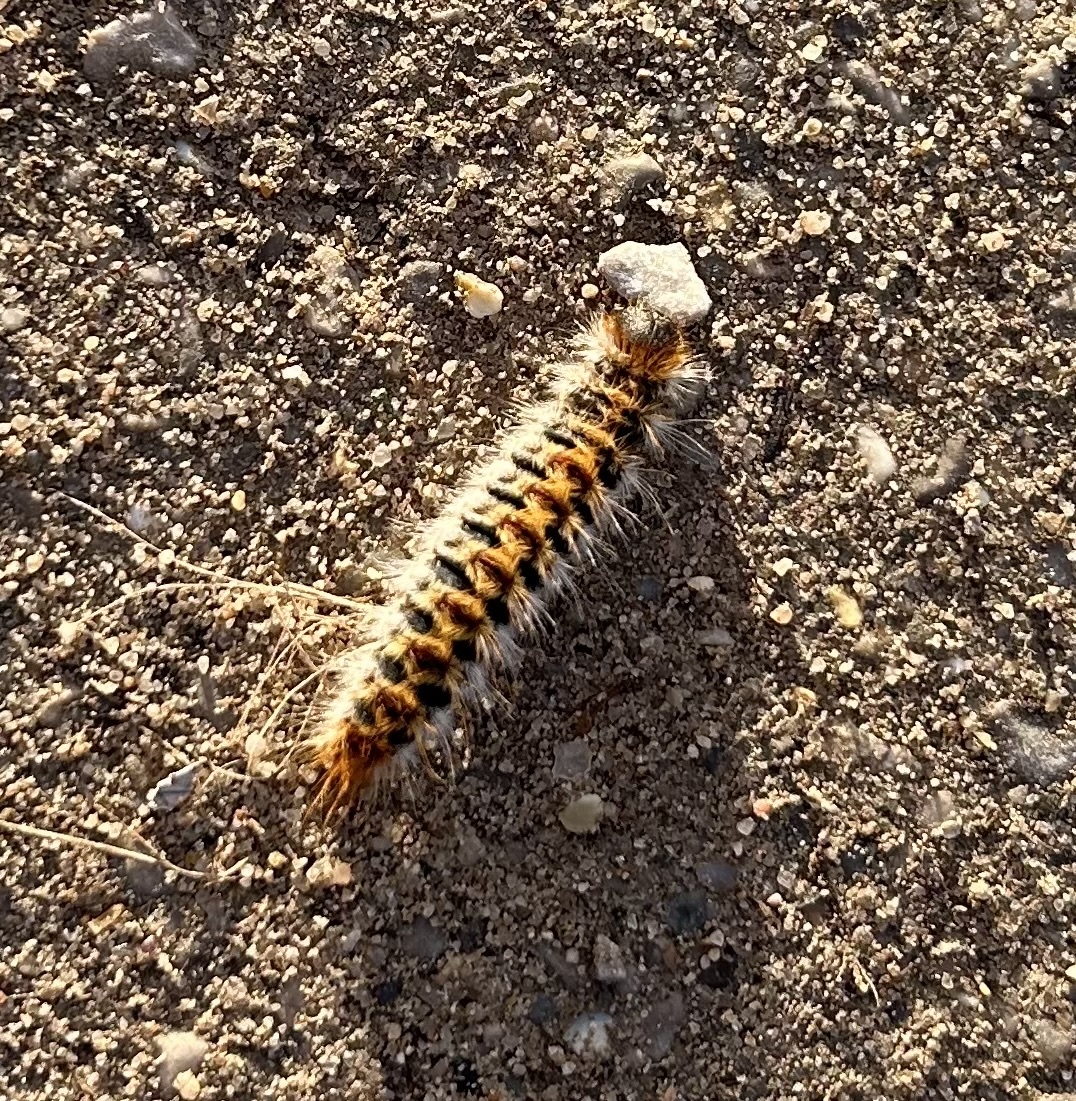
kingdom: Animalia
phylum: Arthropoda
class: Insecta
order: Lepidoptera
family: Notodontidae
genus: Thaumetopoea
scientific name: Thaumetopoea pityocampa
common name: Pine processionary
